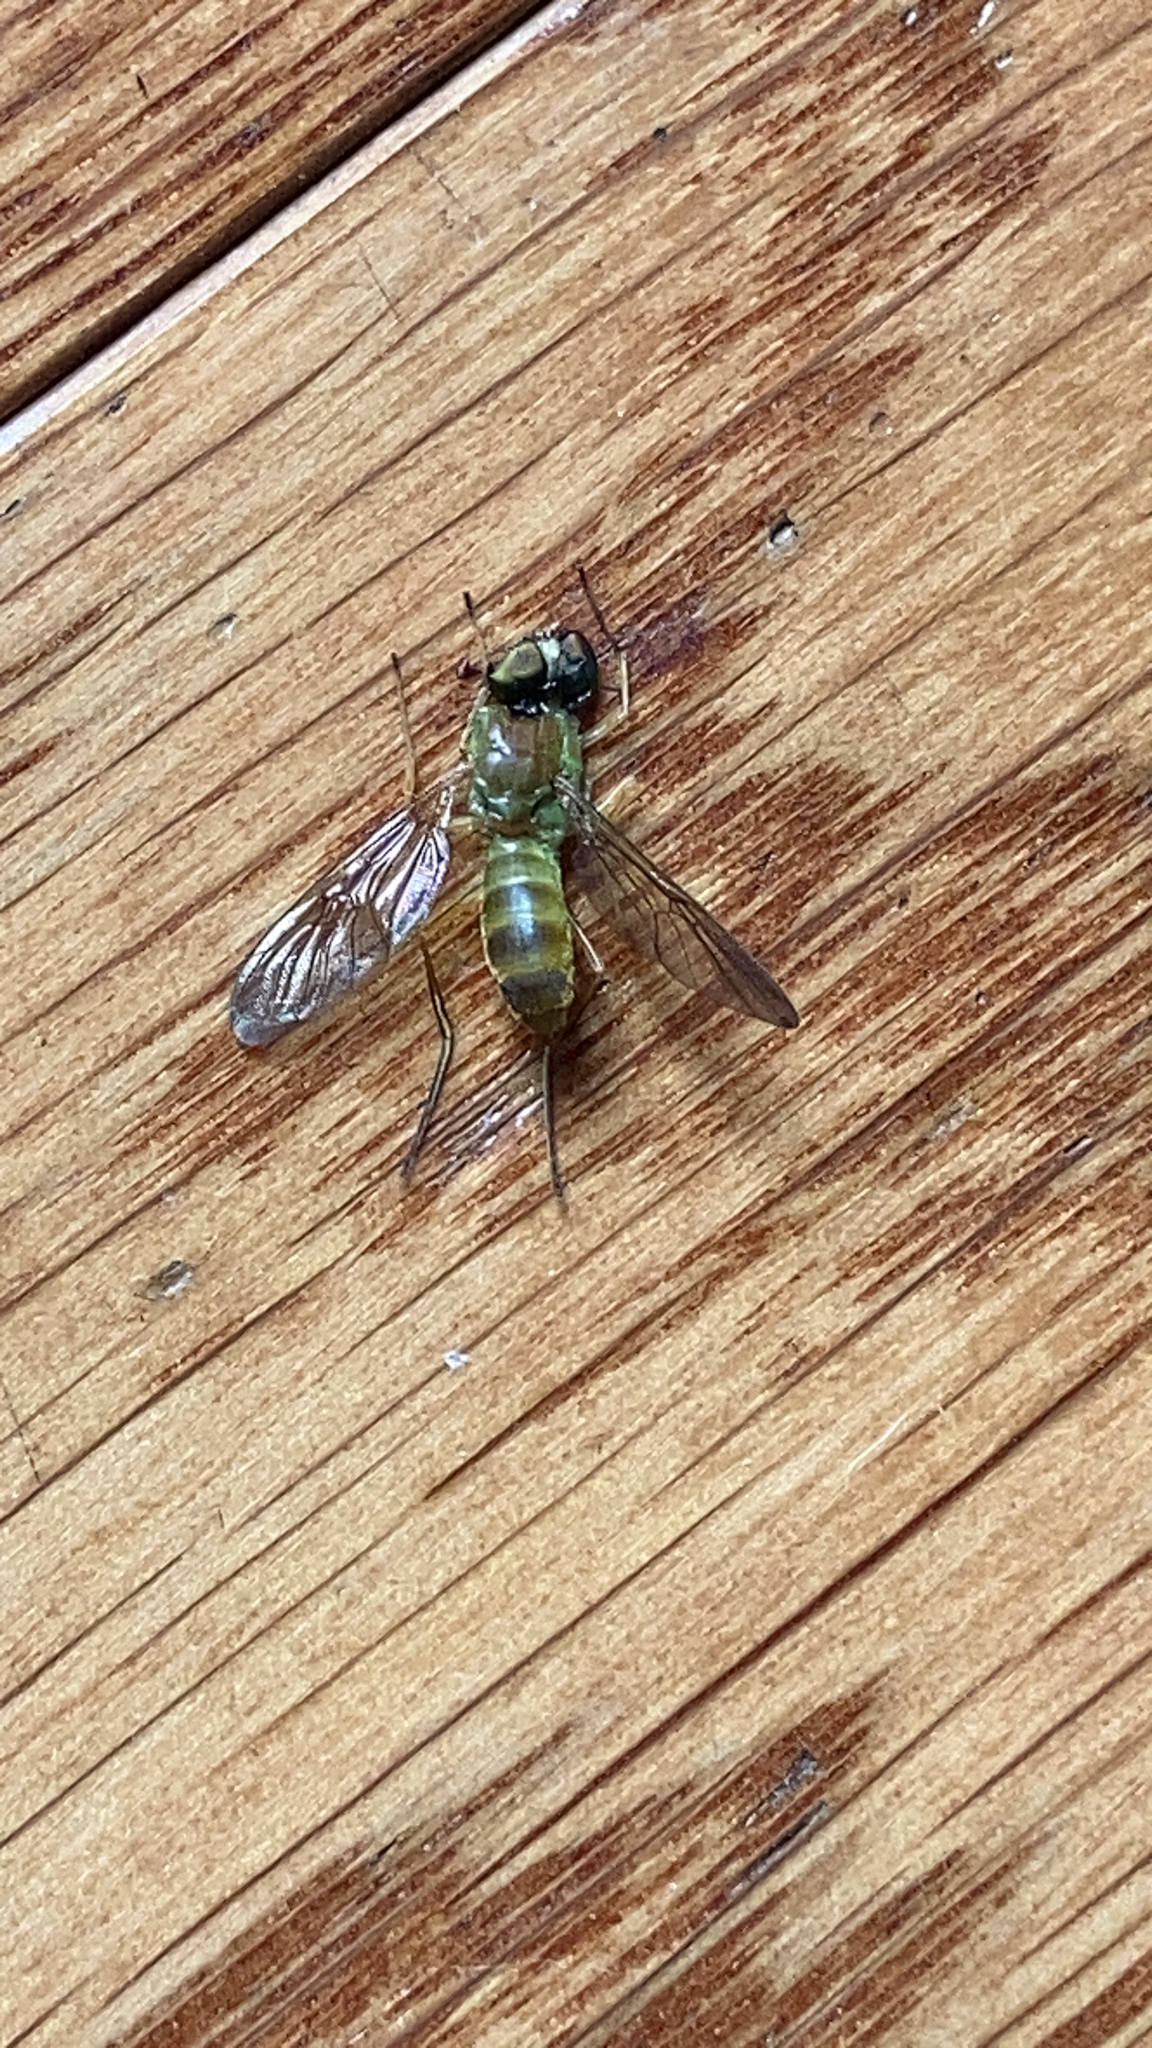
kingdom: Animalia
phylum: Arthropoda
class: Insecta
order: Diptera
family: Stratiomyidae
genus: Ptecticus
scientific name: Ptecticus trivittatus
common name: Compost fly
